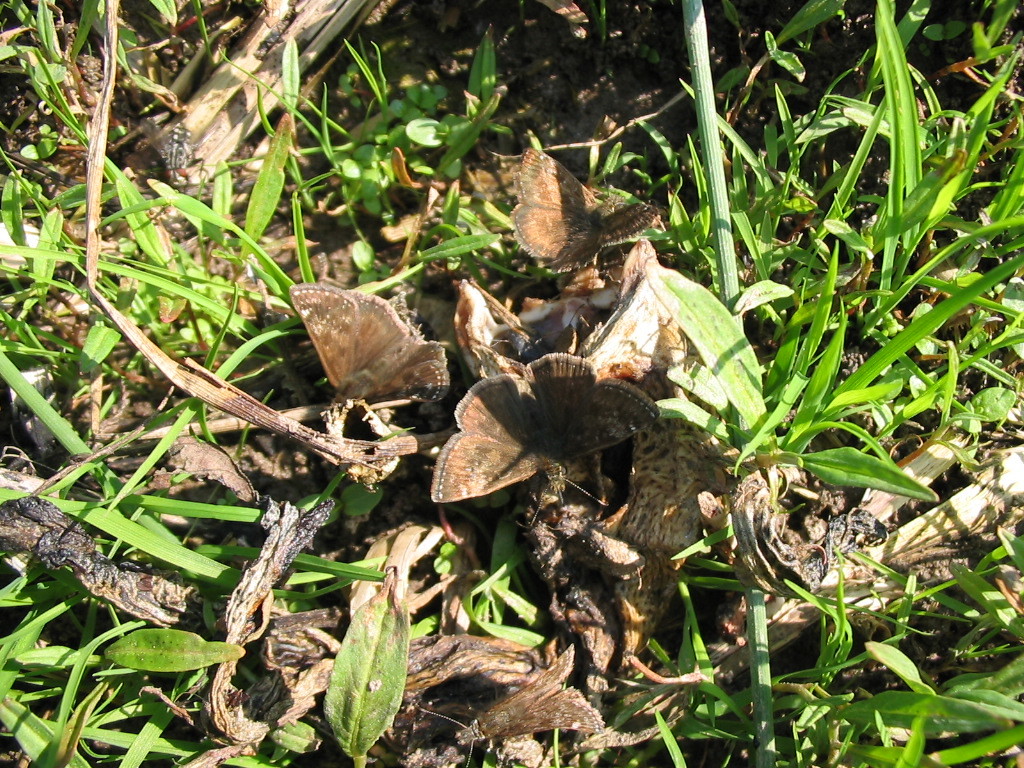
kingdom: Animalia
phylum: Arthropoda
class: Insecta
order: Lepidoptera
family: Hesperiidae
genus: Erynnis
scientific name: Erynnis tages
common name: Dingy skipper
